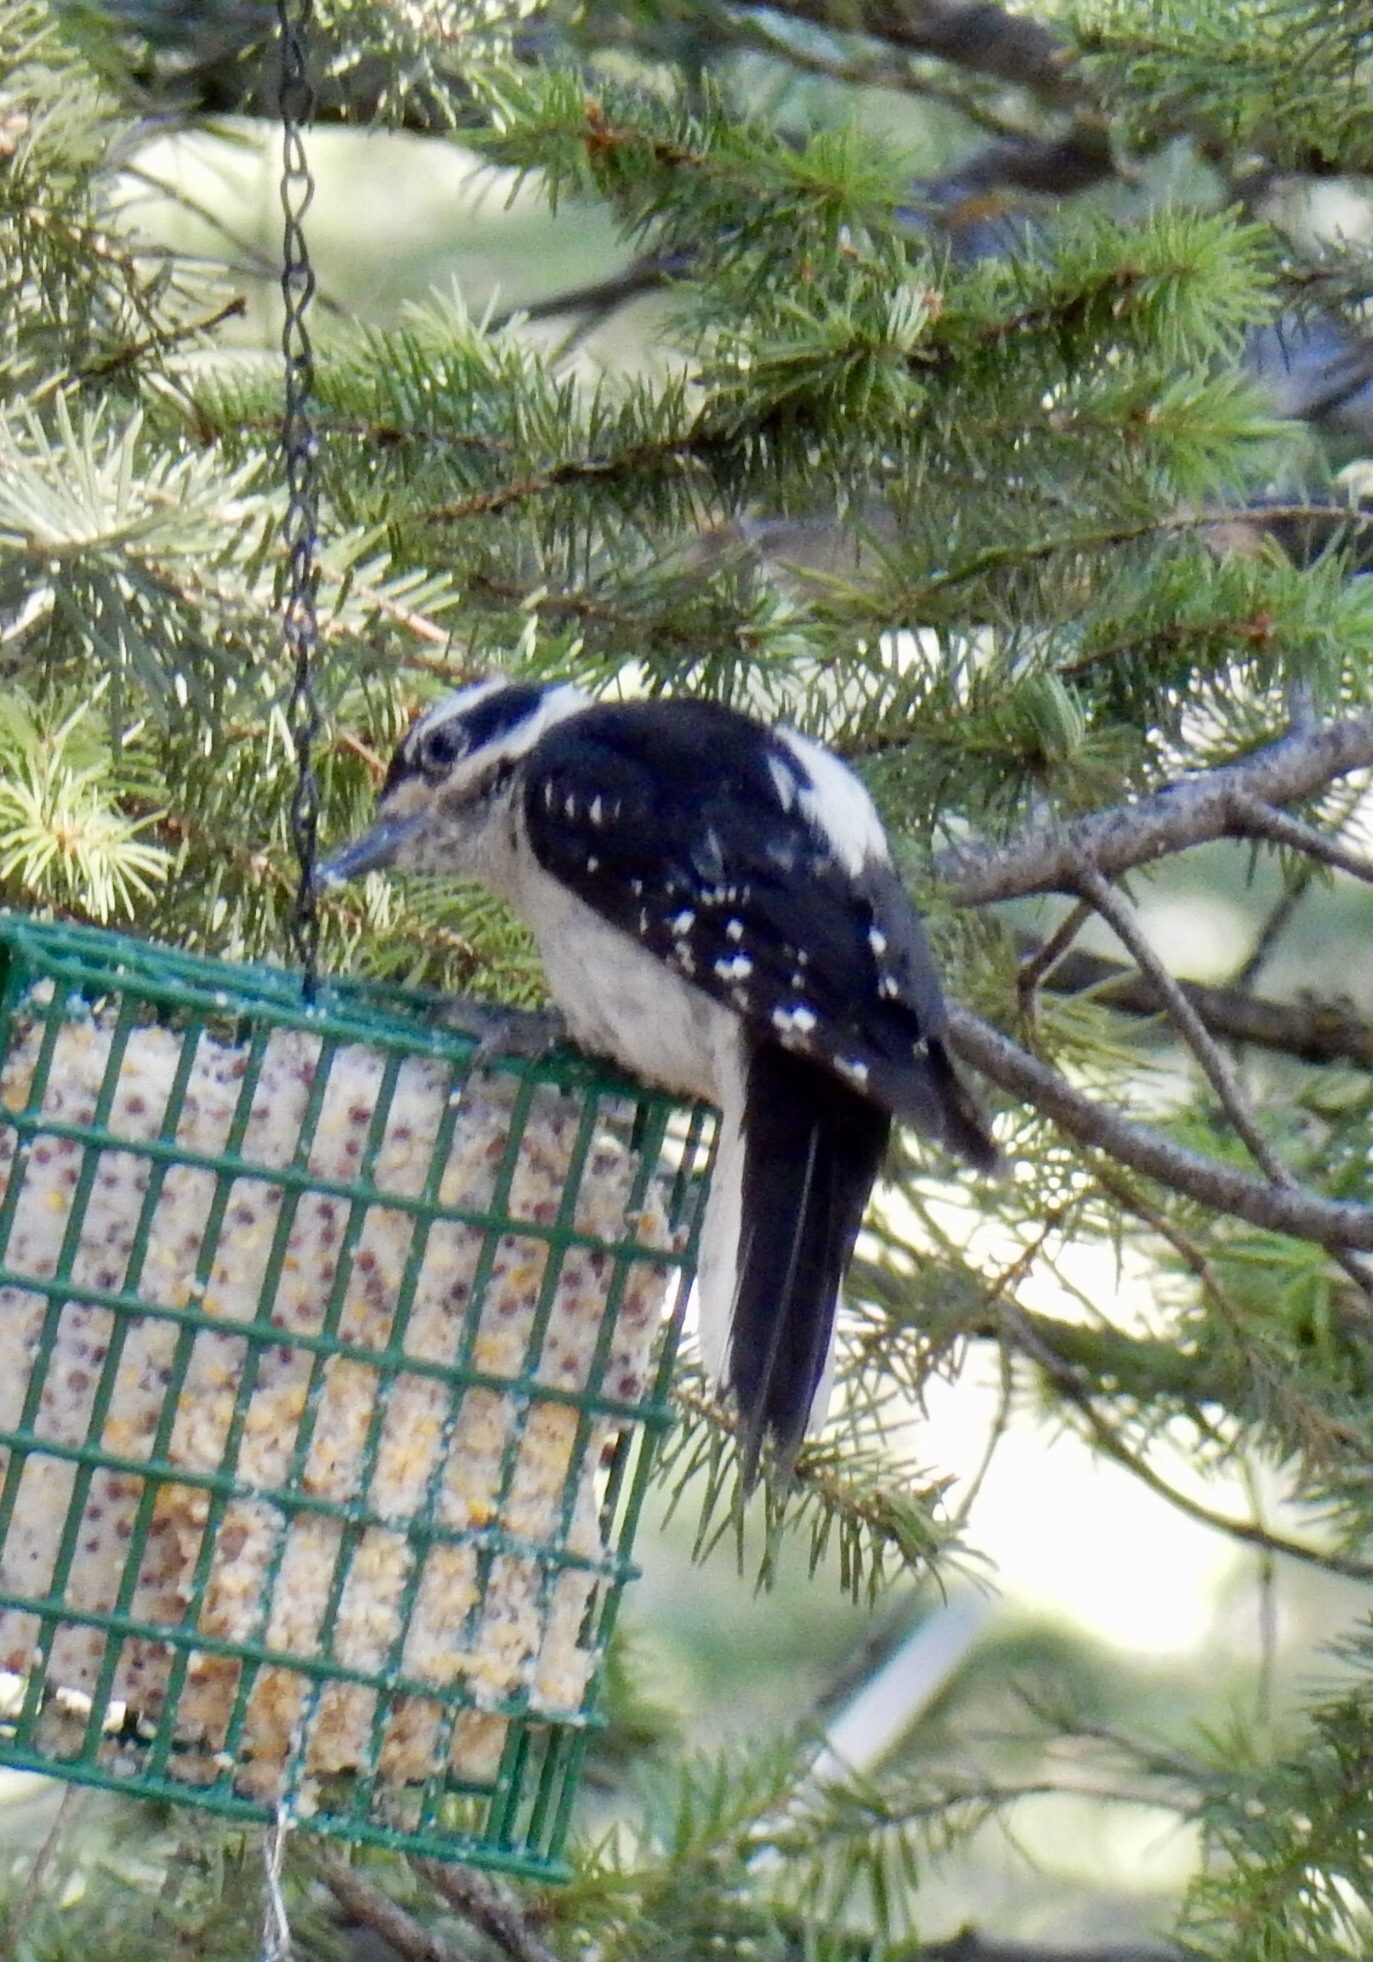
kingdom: Animalia
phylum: Chordata
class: Aves
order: Piciformes
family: Picidae
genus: Leuconotopicus
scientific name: Leuconotopicus villosus
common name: Hairy woodpecker
